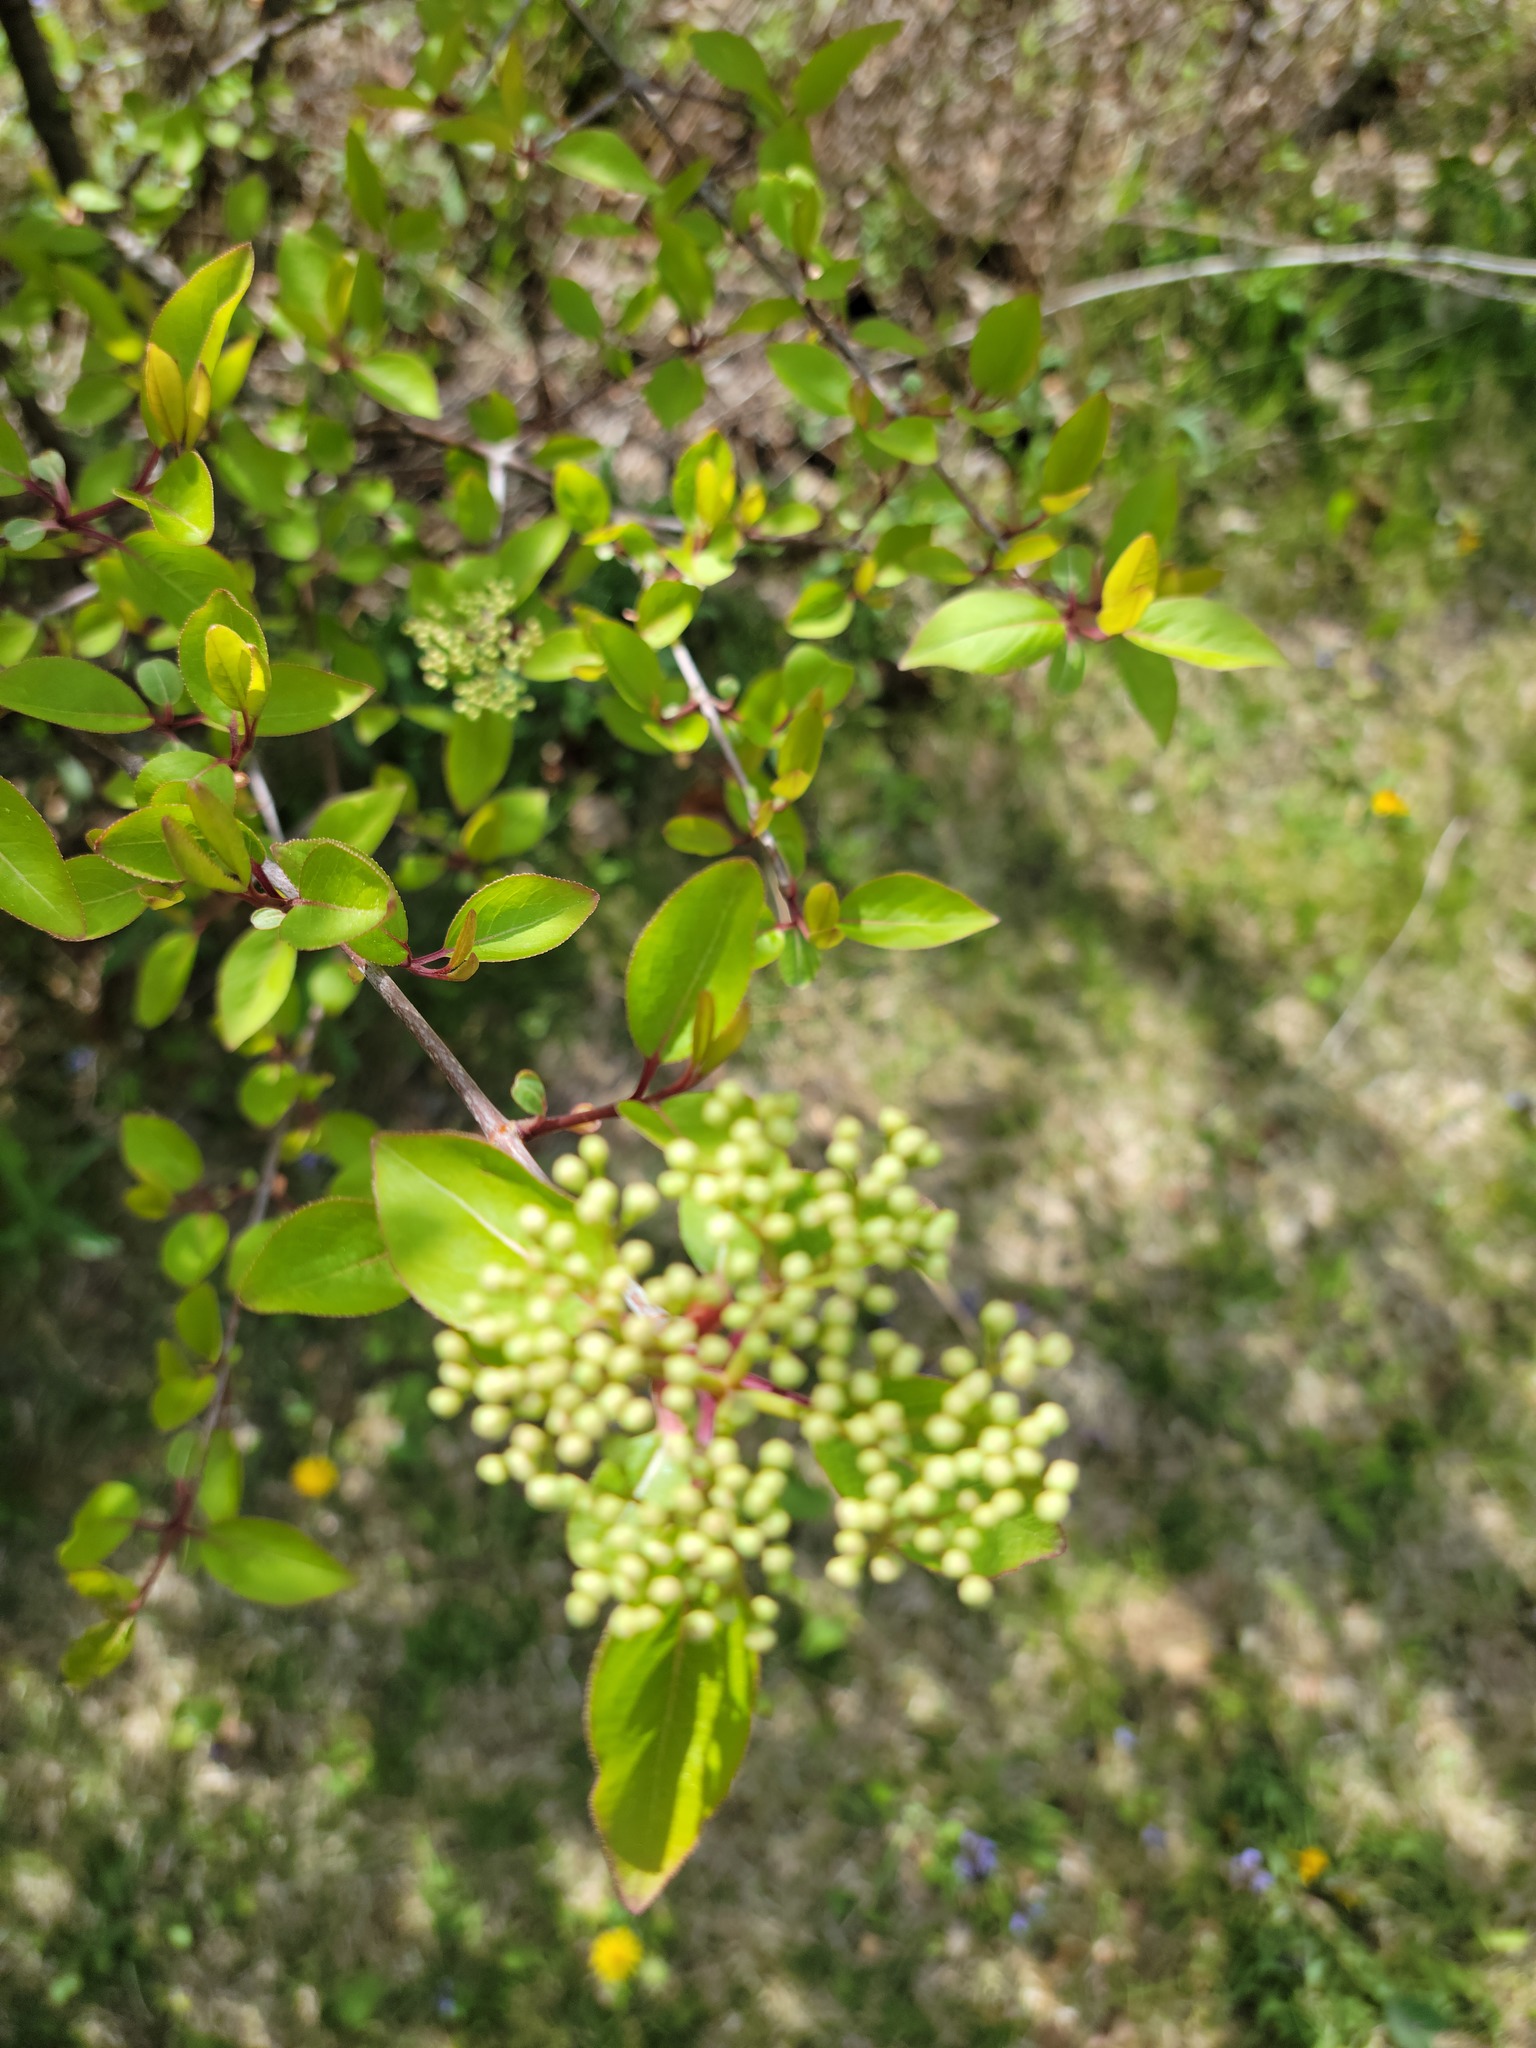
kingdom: Plantae
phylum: Tracheophyta
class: Magnoliopsida
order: Dipsacales
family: Viburnaceae
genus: Viburnum
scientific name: Viburnum prunifolium
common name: Black haw
